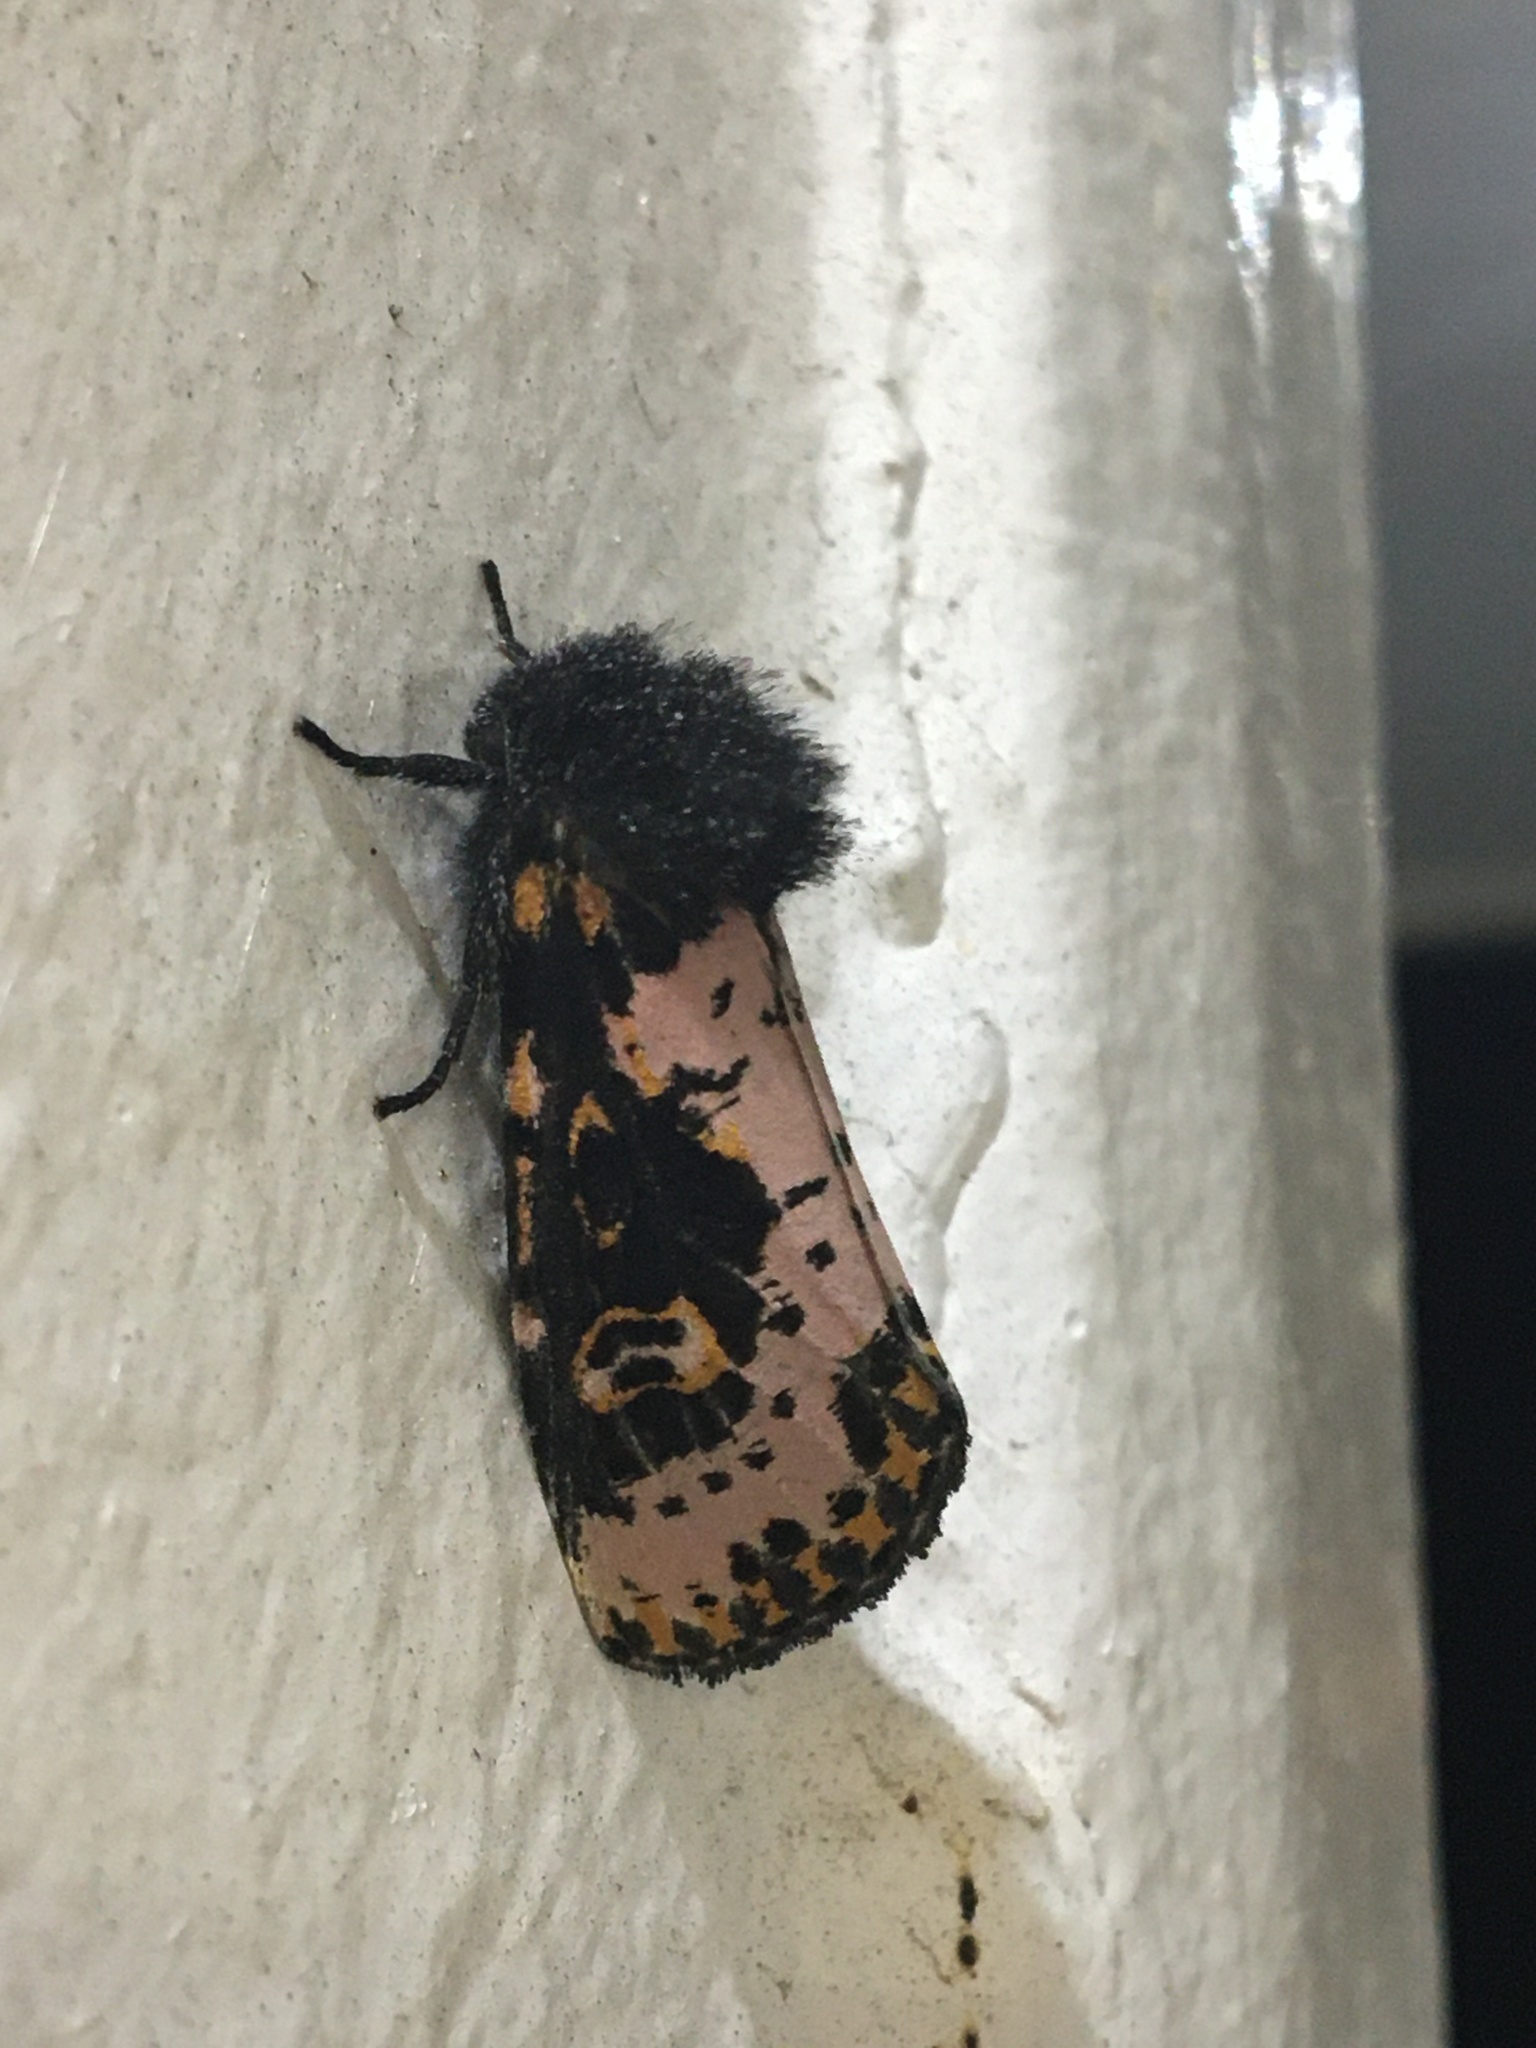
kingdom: Animalia
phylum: Arthropoda
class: Insecta
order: Lepidoptera
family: Noctuidae
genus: Xanthopastis
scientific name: Xanthopastis regnatrix
